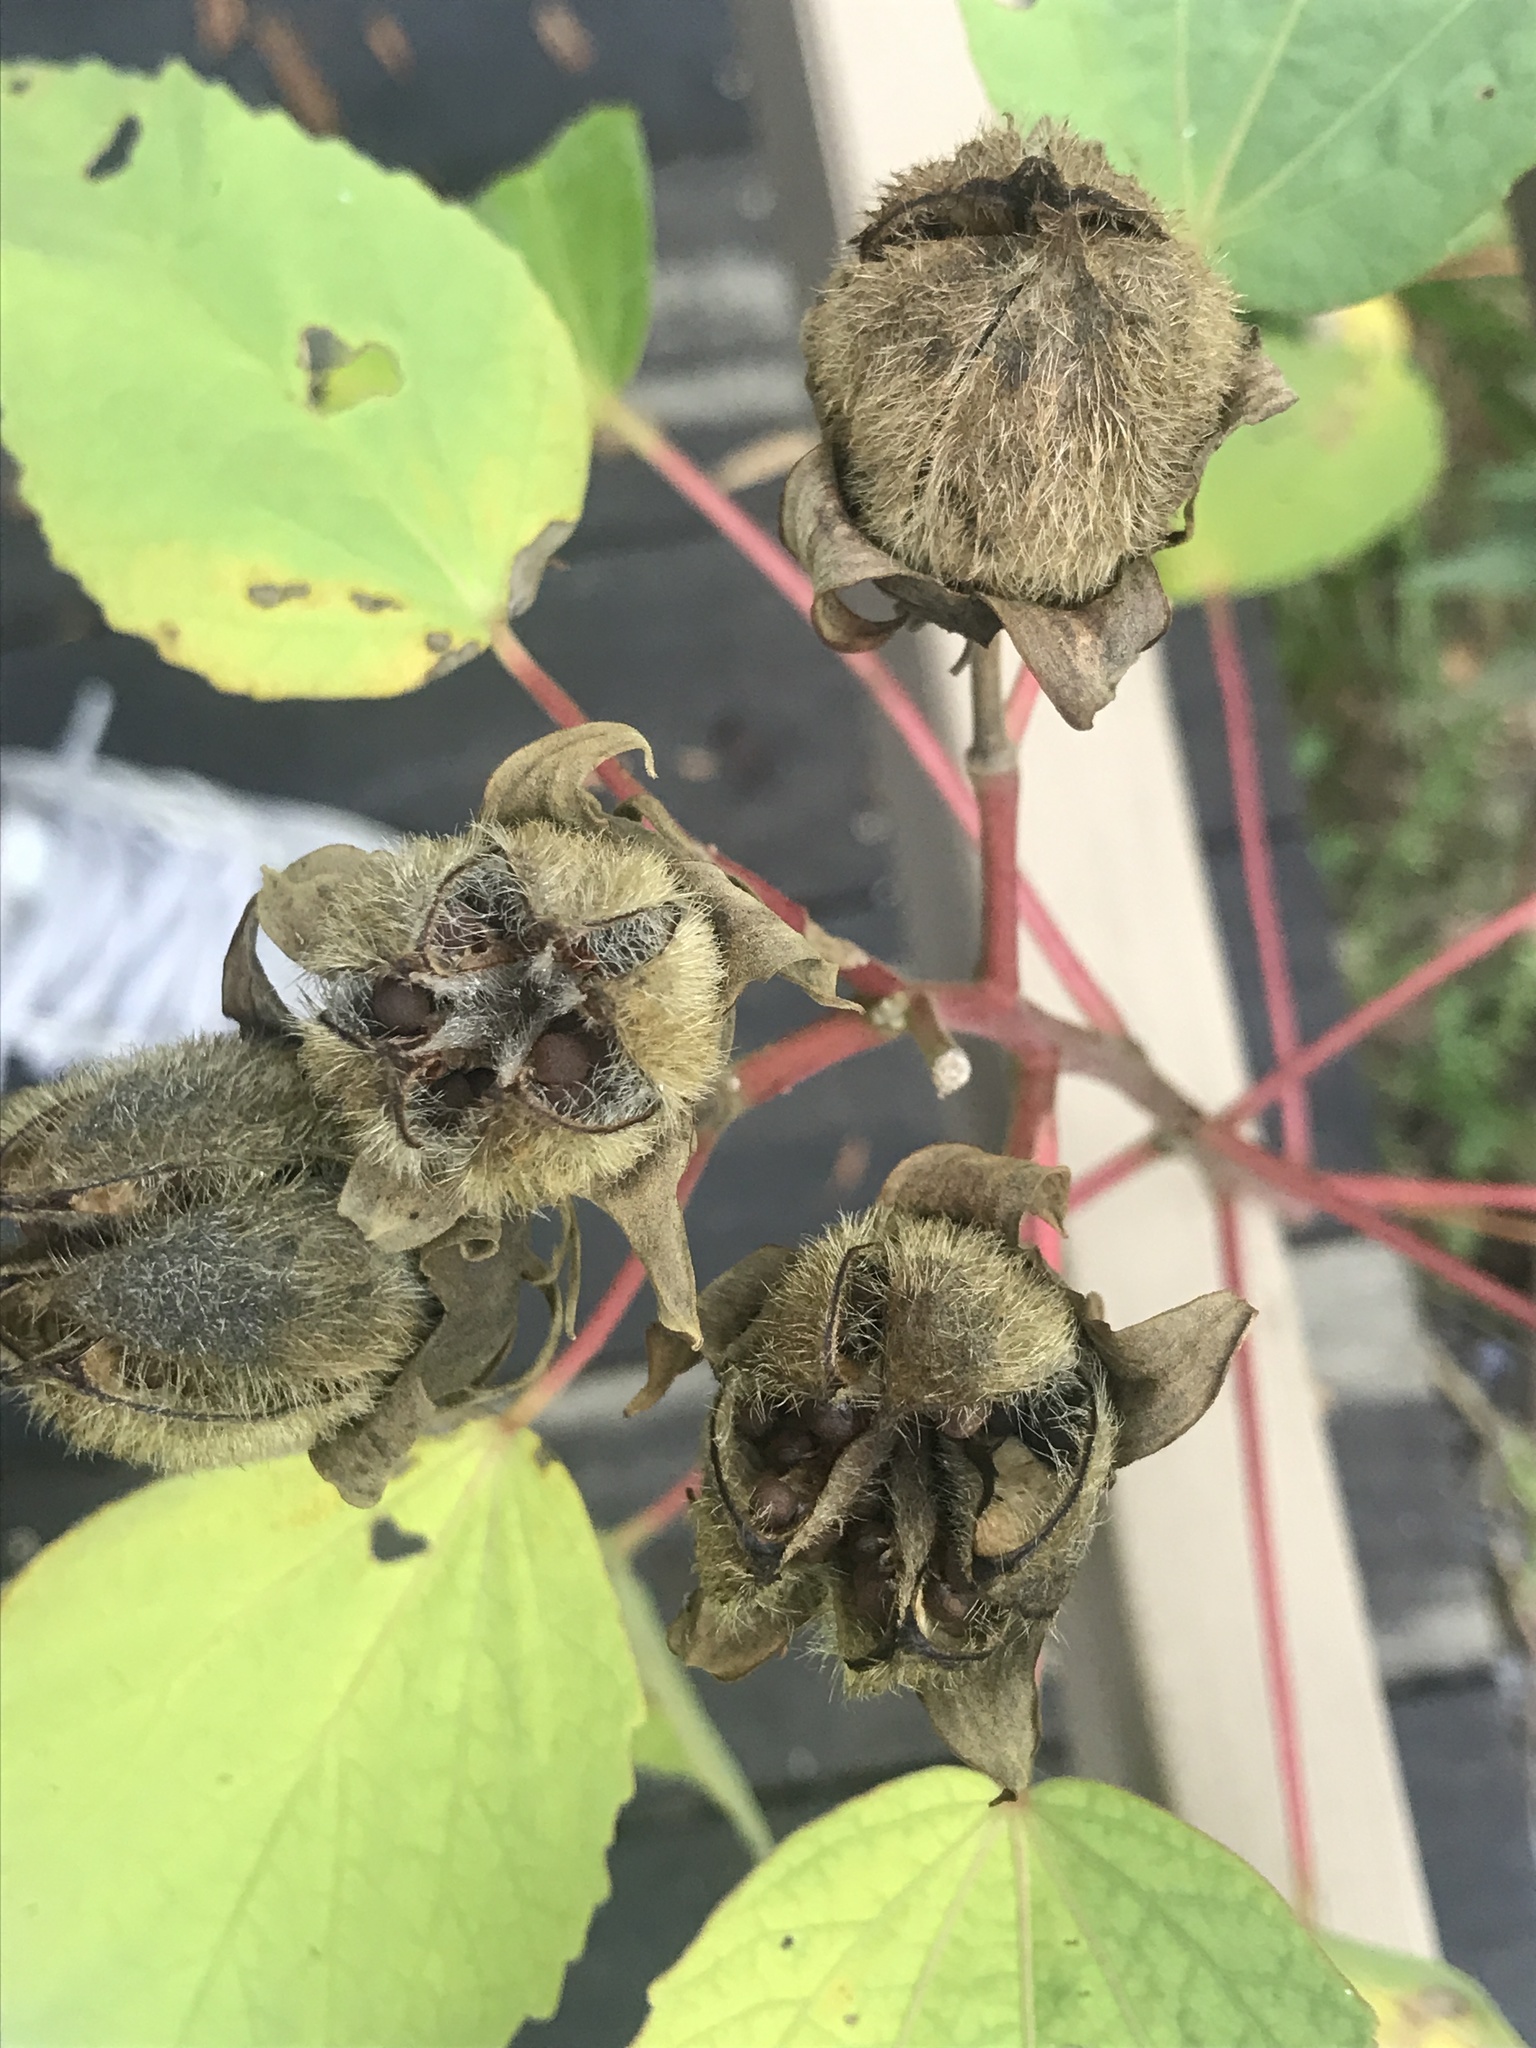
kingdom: Plantae
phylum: Tracheophyta
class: Magnoliopsida
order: Malvales
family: Malvaceae
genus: Hibiscus
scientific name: Hibiscus moscheutos
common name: Common rose-mallow
